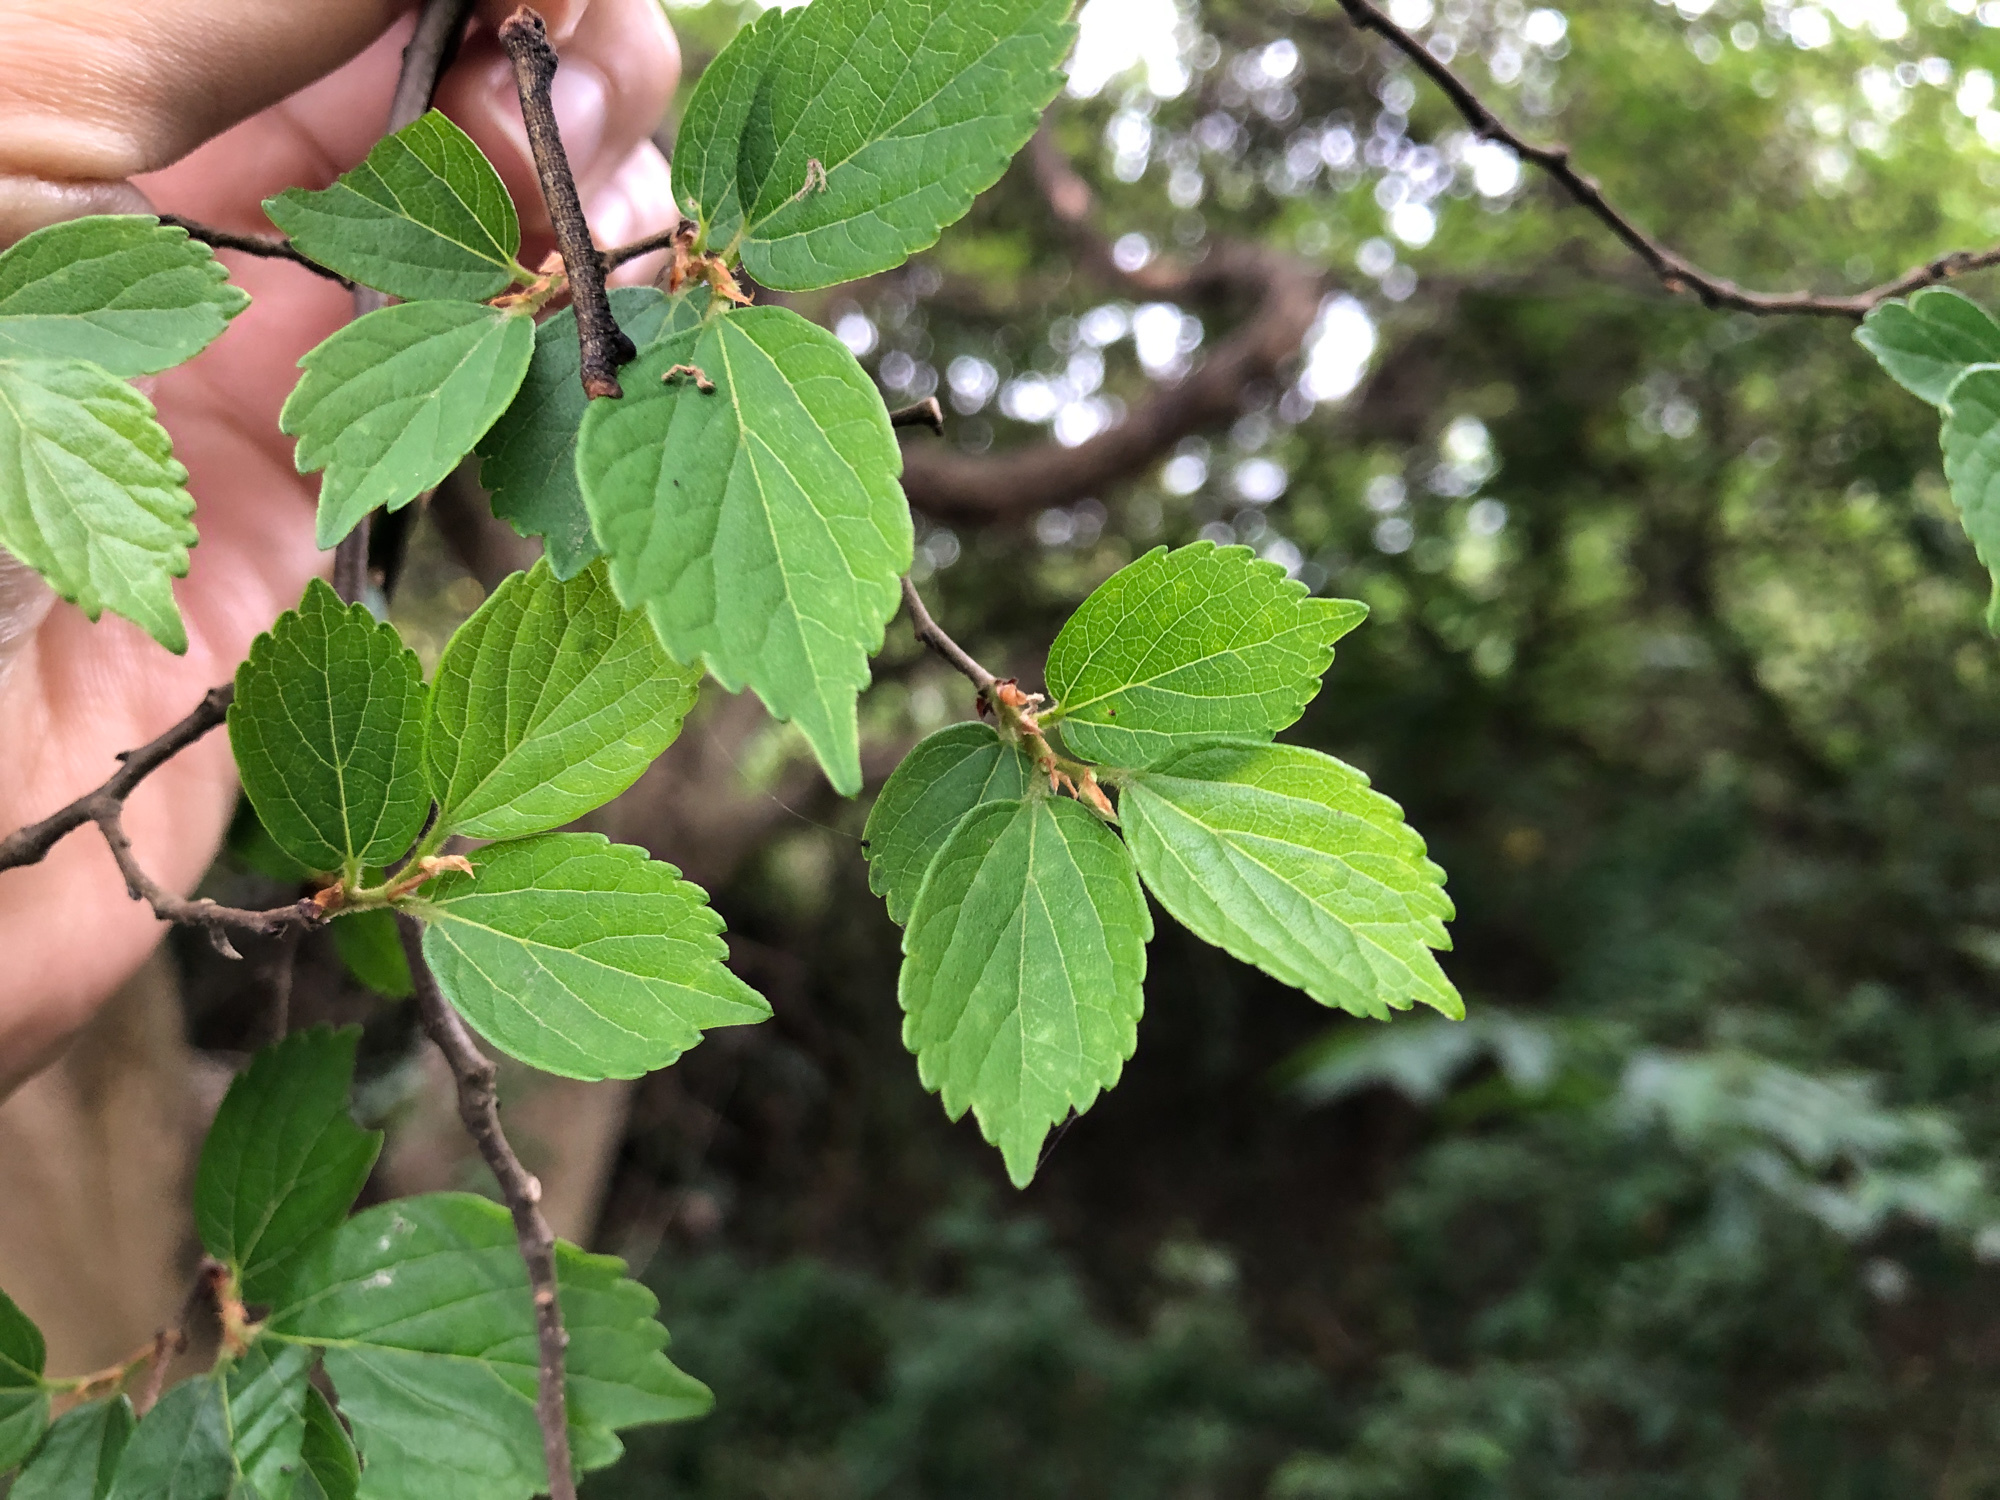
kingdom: Plantae
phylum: Tracheophyta
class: Magnoliopsida
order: Rosales
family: Cannabaceae
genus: Celtis
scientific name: Celtis biondii
